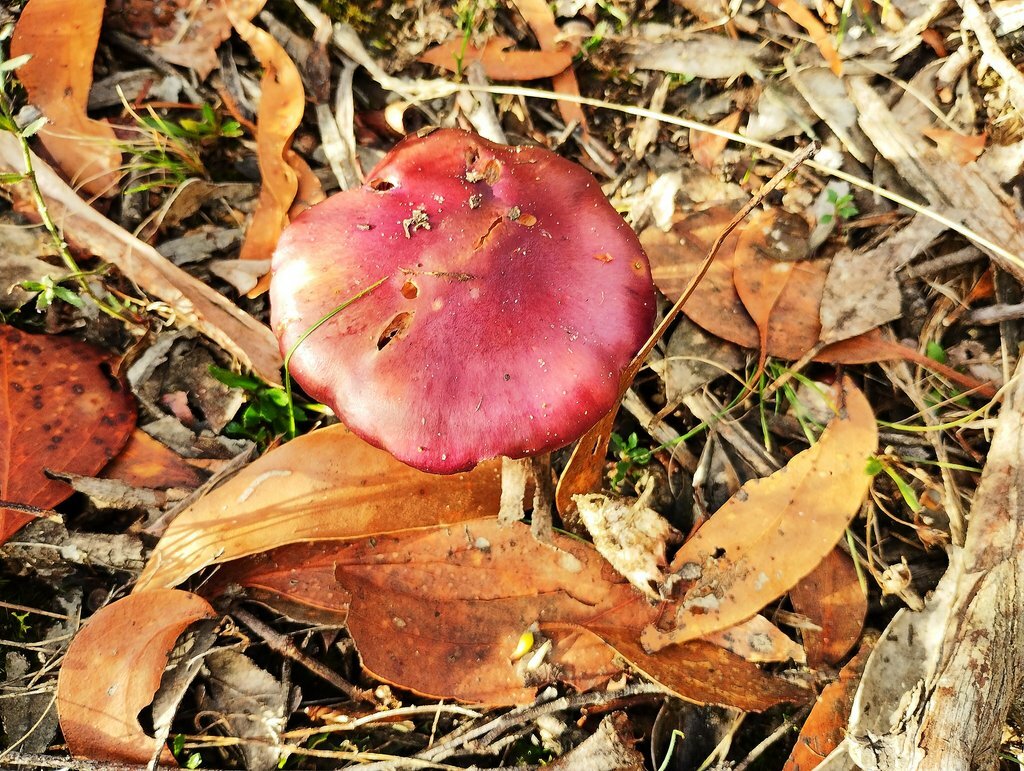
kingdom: Fungi
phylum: Basidiomycota
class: Agaricomycetes
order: Agaricales
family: Cortinariaceae
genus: Cortinarius
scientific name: Cortinarius archeri
